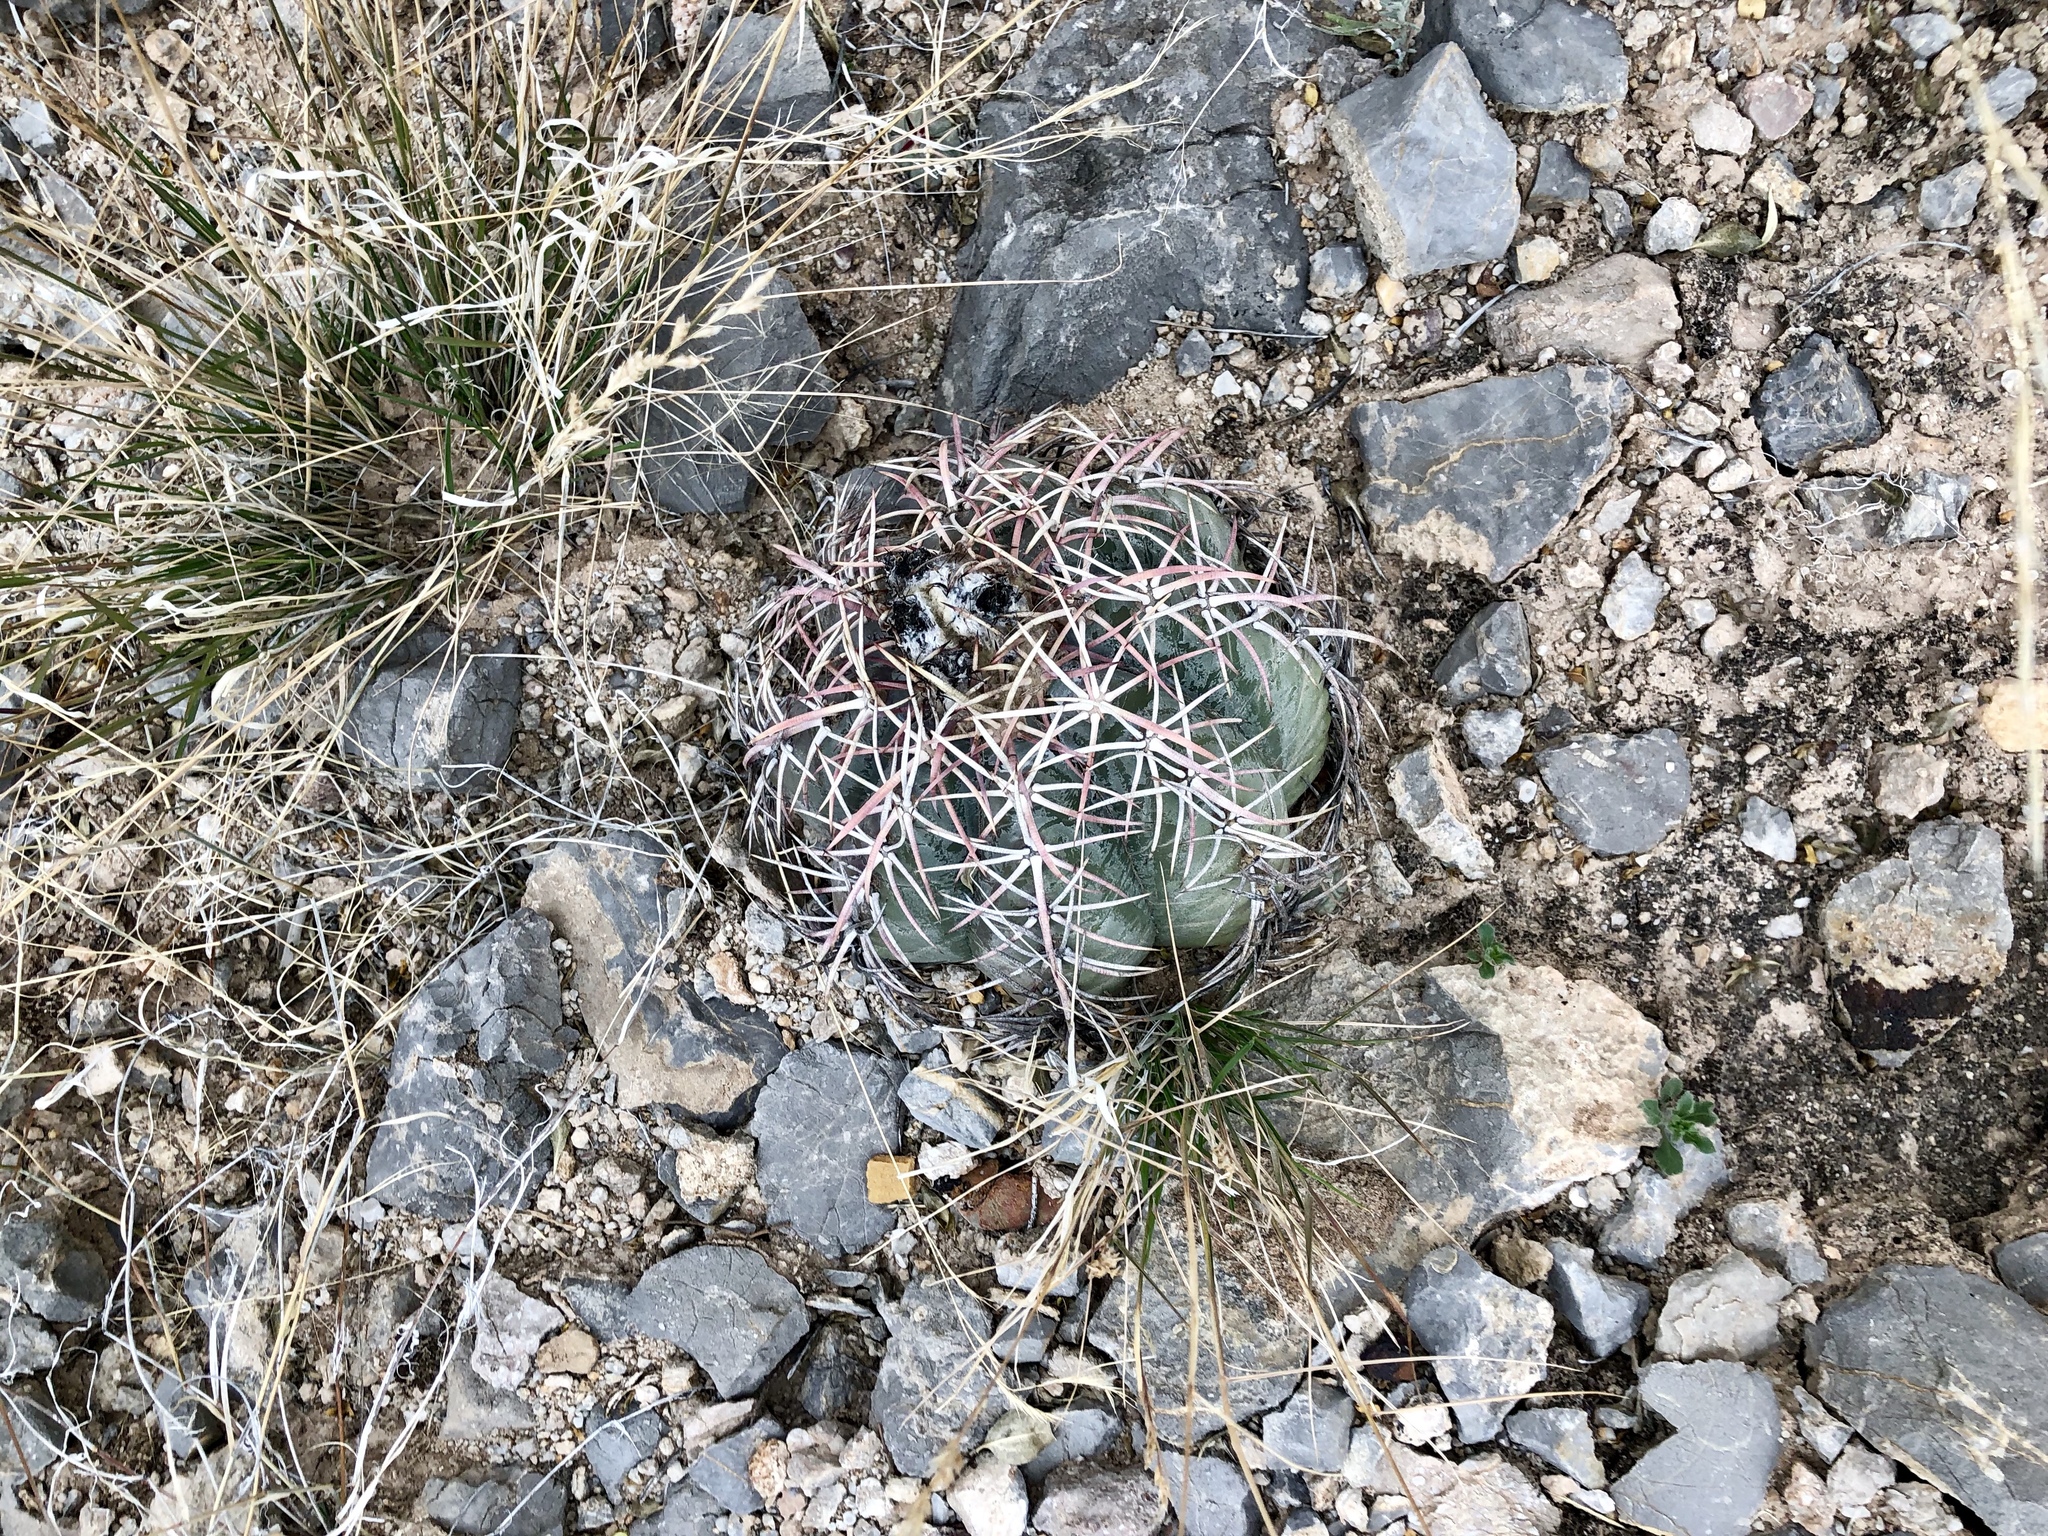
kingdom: Plantae
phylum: Tracheophyta
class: Magnoliopsida
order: Caryophyllales
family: Cactaceae
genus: Echinocactus
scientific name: Echinocactus horizonthalonius
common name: Devilshead
